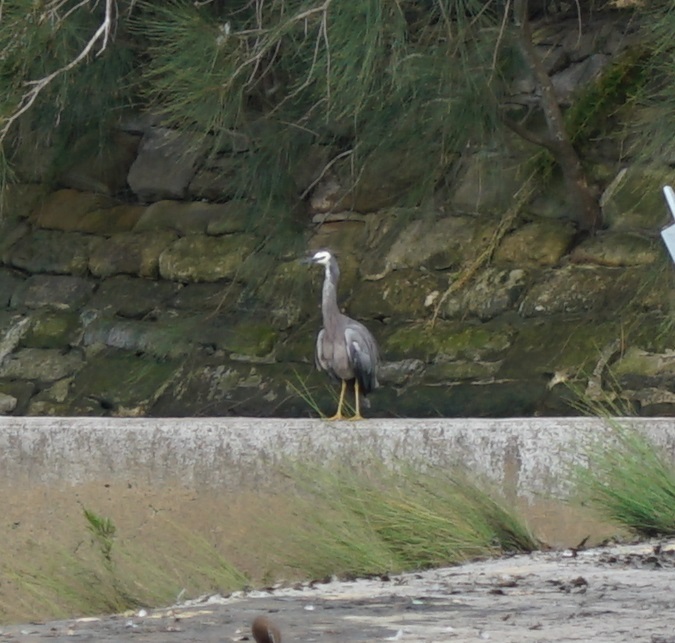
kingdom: Animalia
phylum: Chordata
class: Aves
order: Pelecaniformes
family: Ardeidae
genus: Egretta
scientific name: Egretta novaehollandiae
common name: White-faced heron
